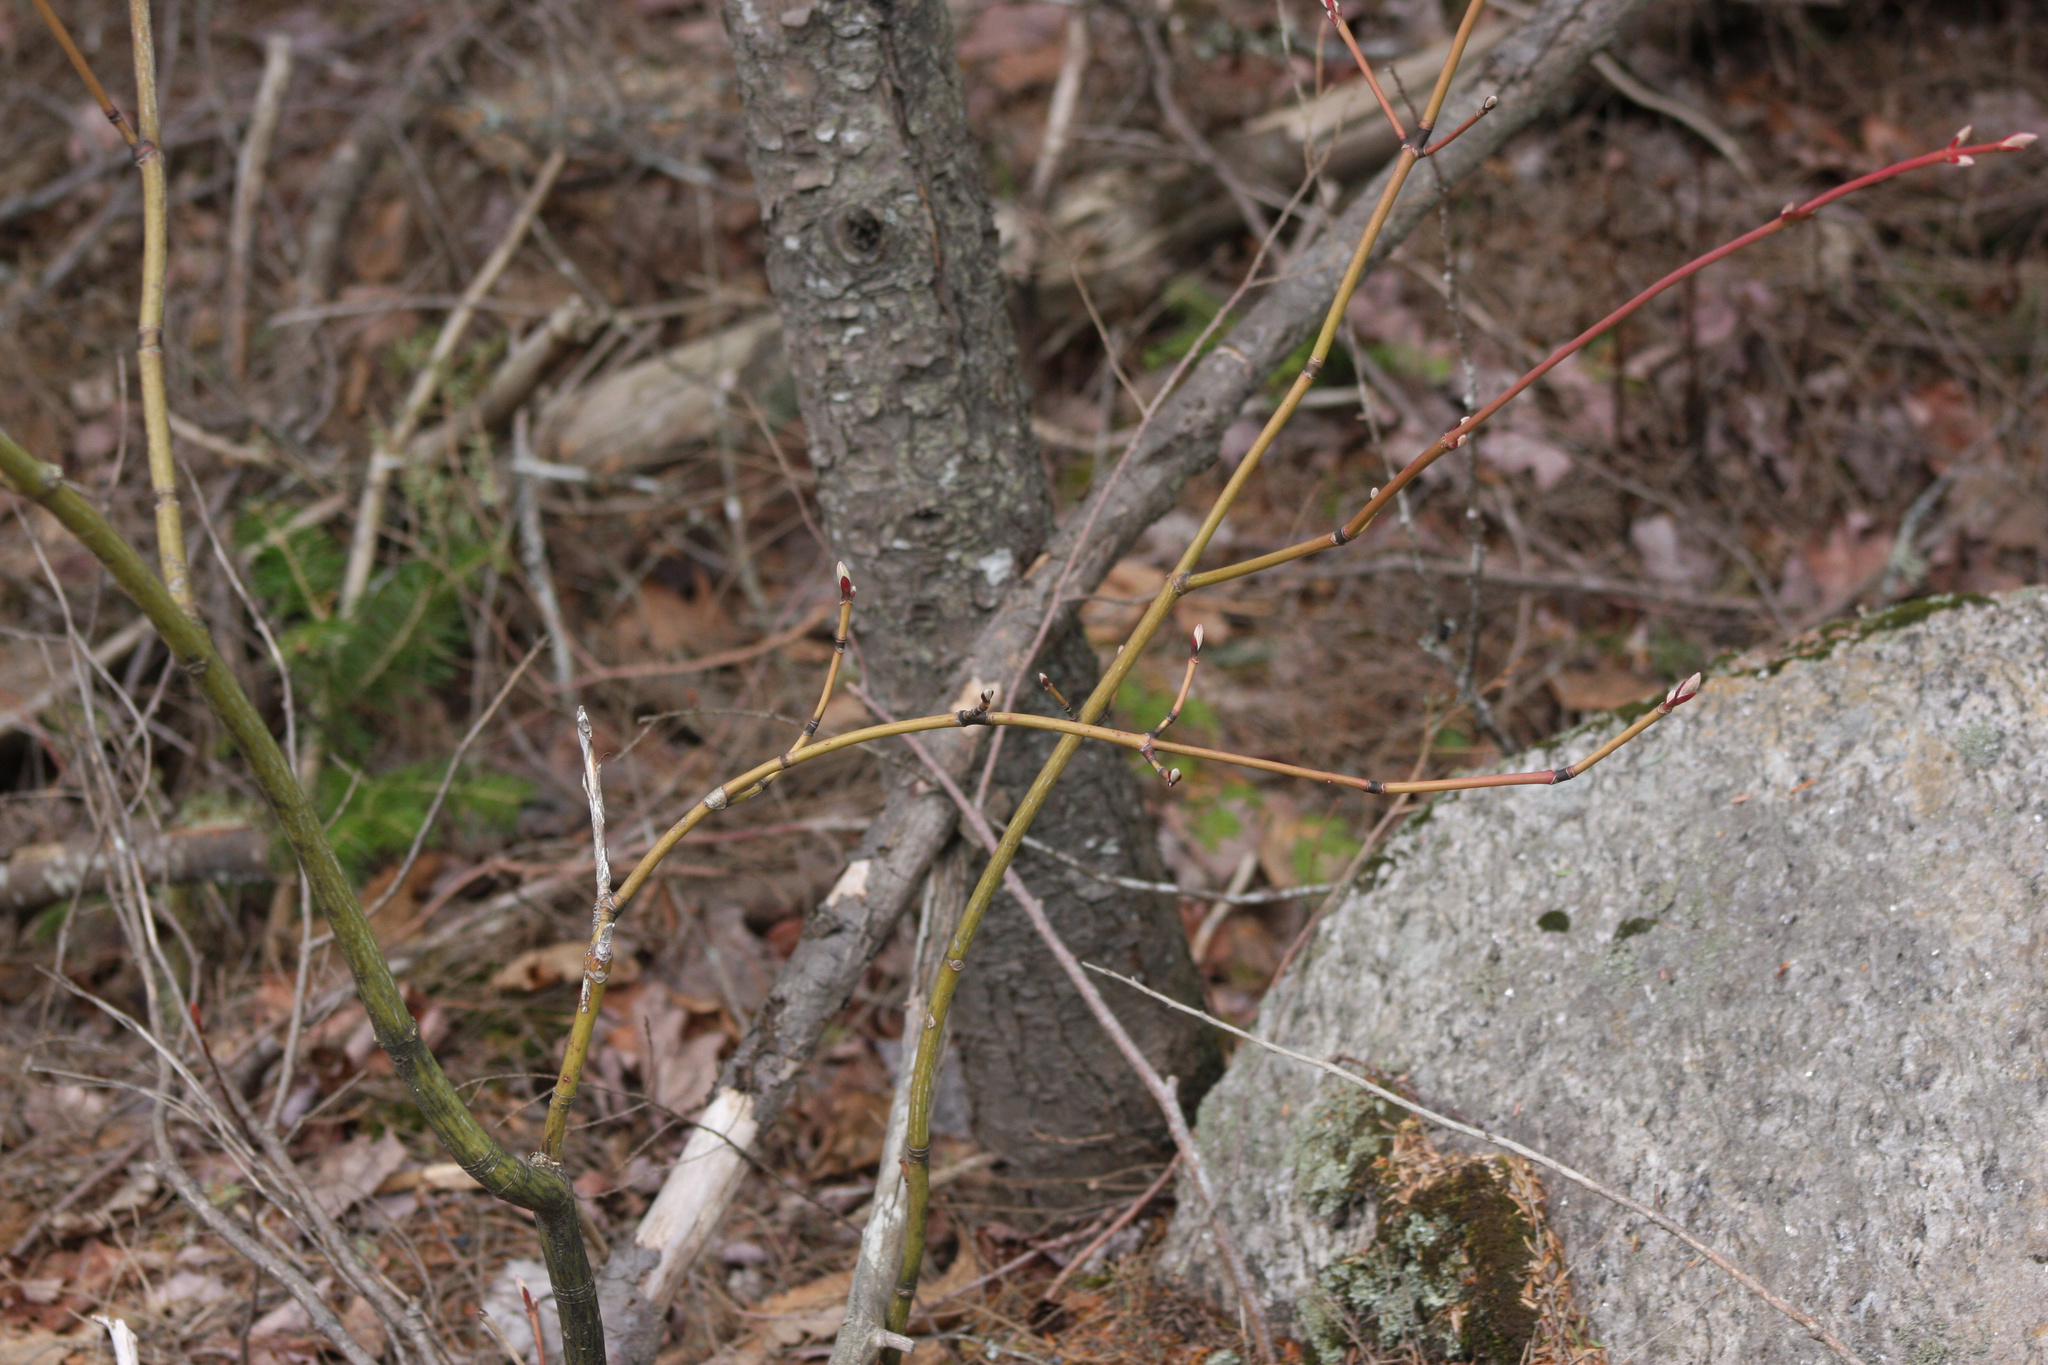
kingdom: Plantae
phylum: Tracheophyta
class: Magnoliopsida
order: Sapindales
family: Sapindaceae
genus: Acer
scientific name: Acer pensylvanicum
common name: Moosewood
